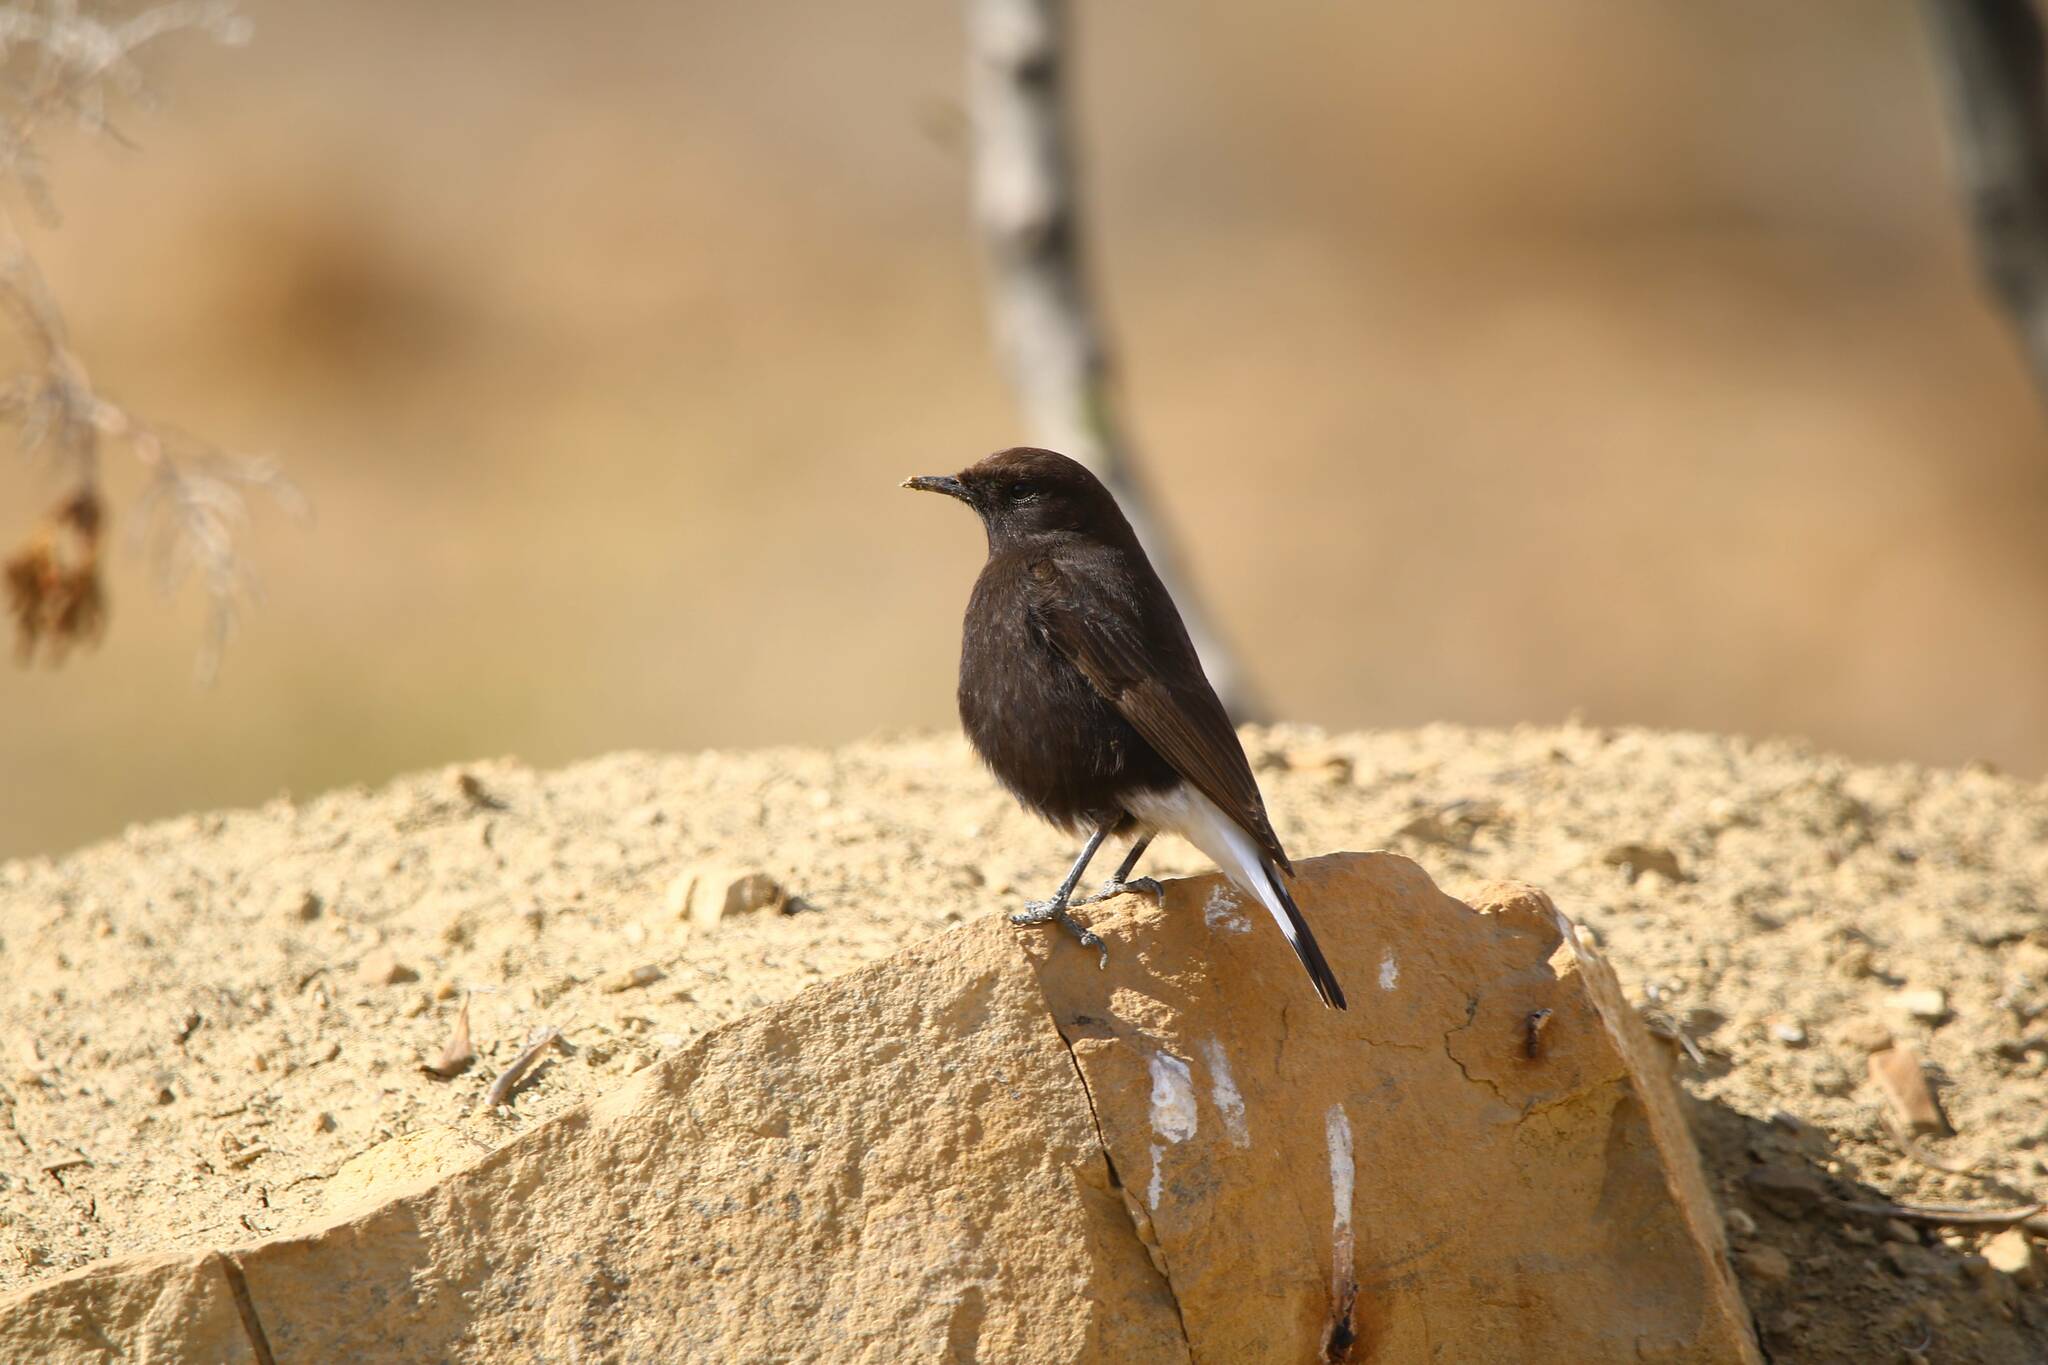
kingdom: Animalia
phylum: Chordata
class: Aves
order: Passeriformes
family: Muscicapidae
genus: Oenanthe
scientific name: Oenanthe leucura
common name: Black wheatear
